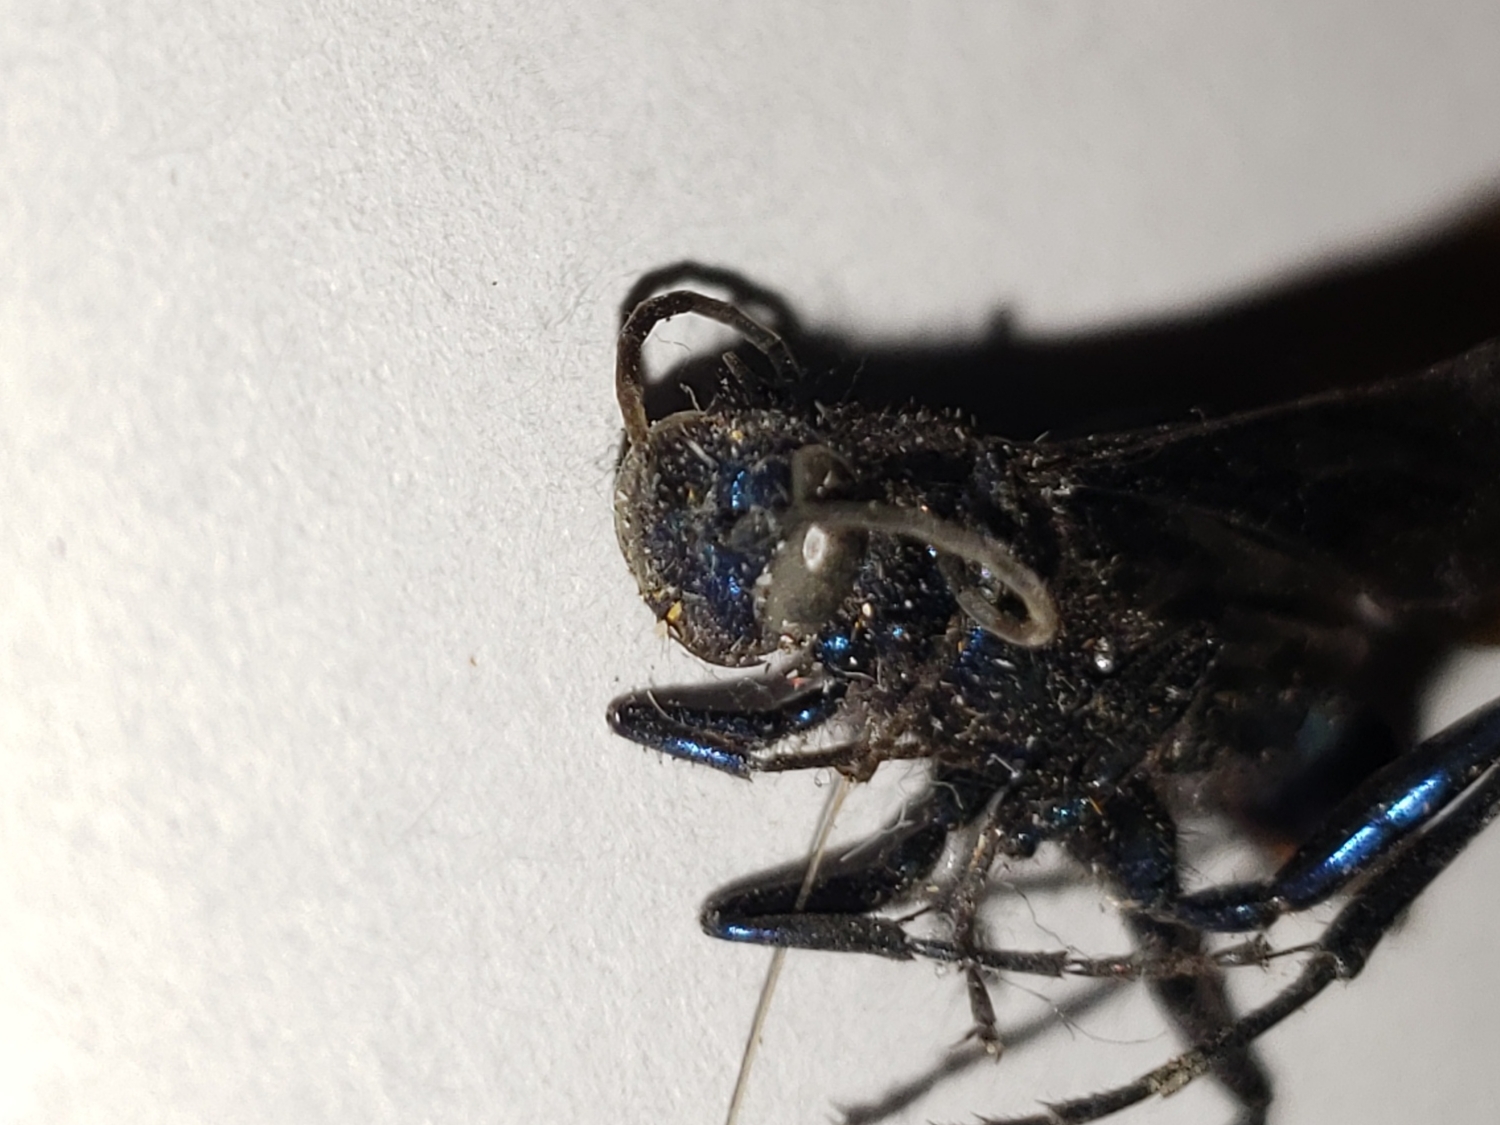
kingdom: Animalia
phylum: Arthropoda
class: Insecta
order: Hymenoptera
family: Sphecidae
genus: Chalybion
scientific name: Chalybion californicum
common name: Mud dauber
